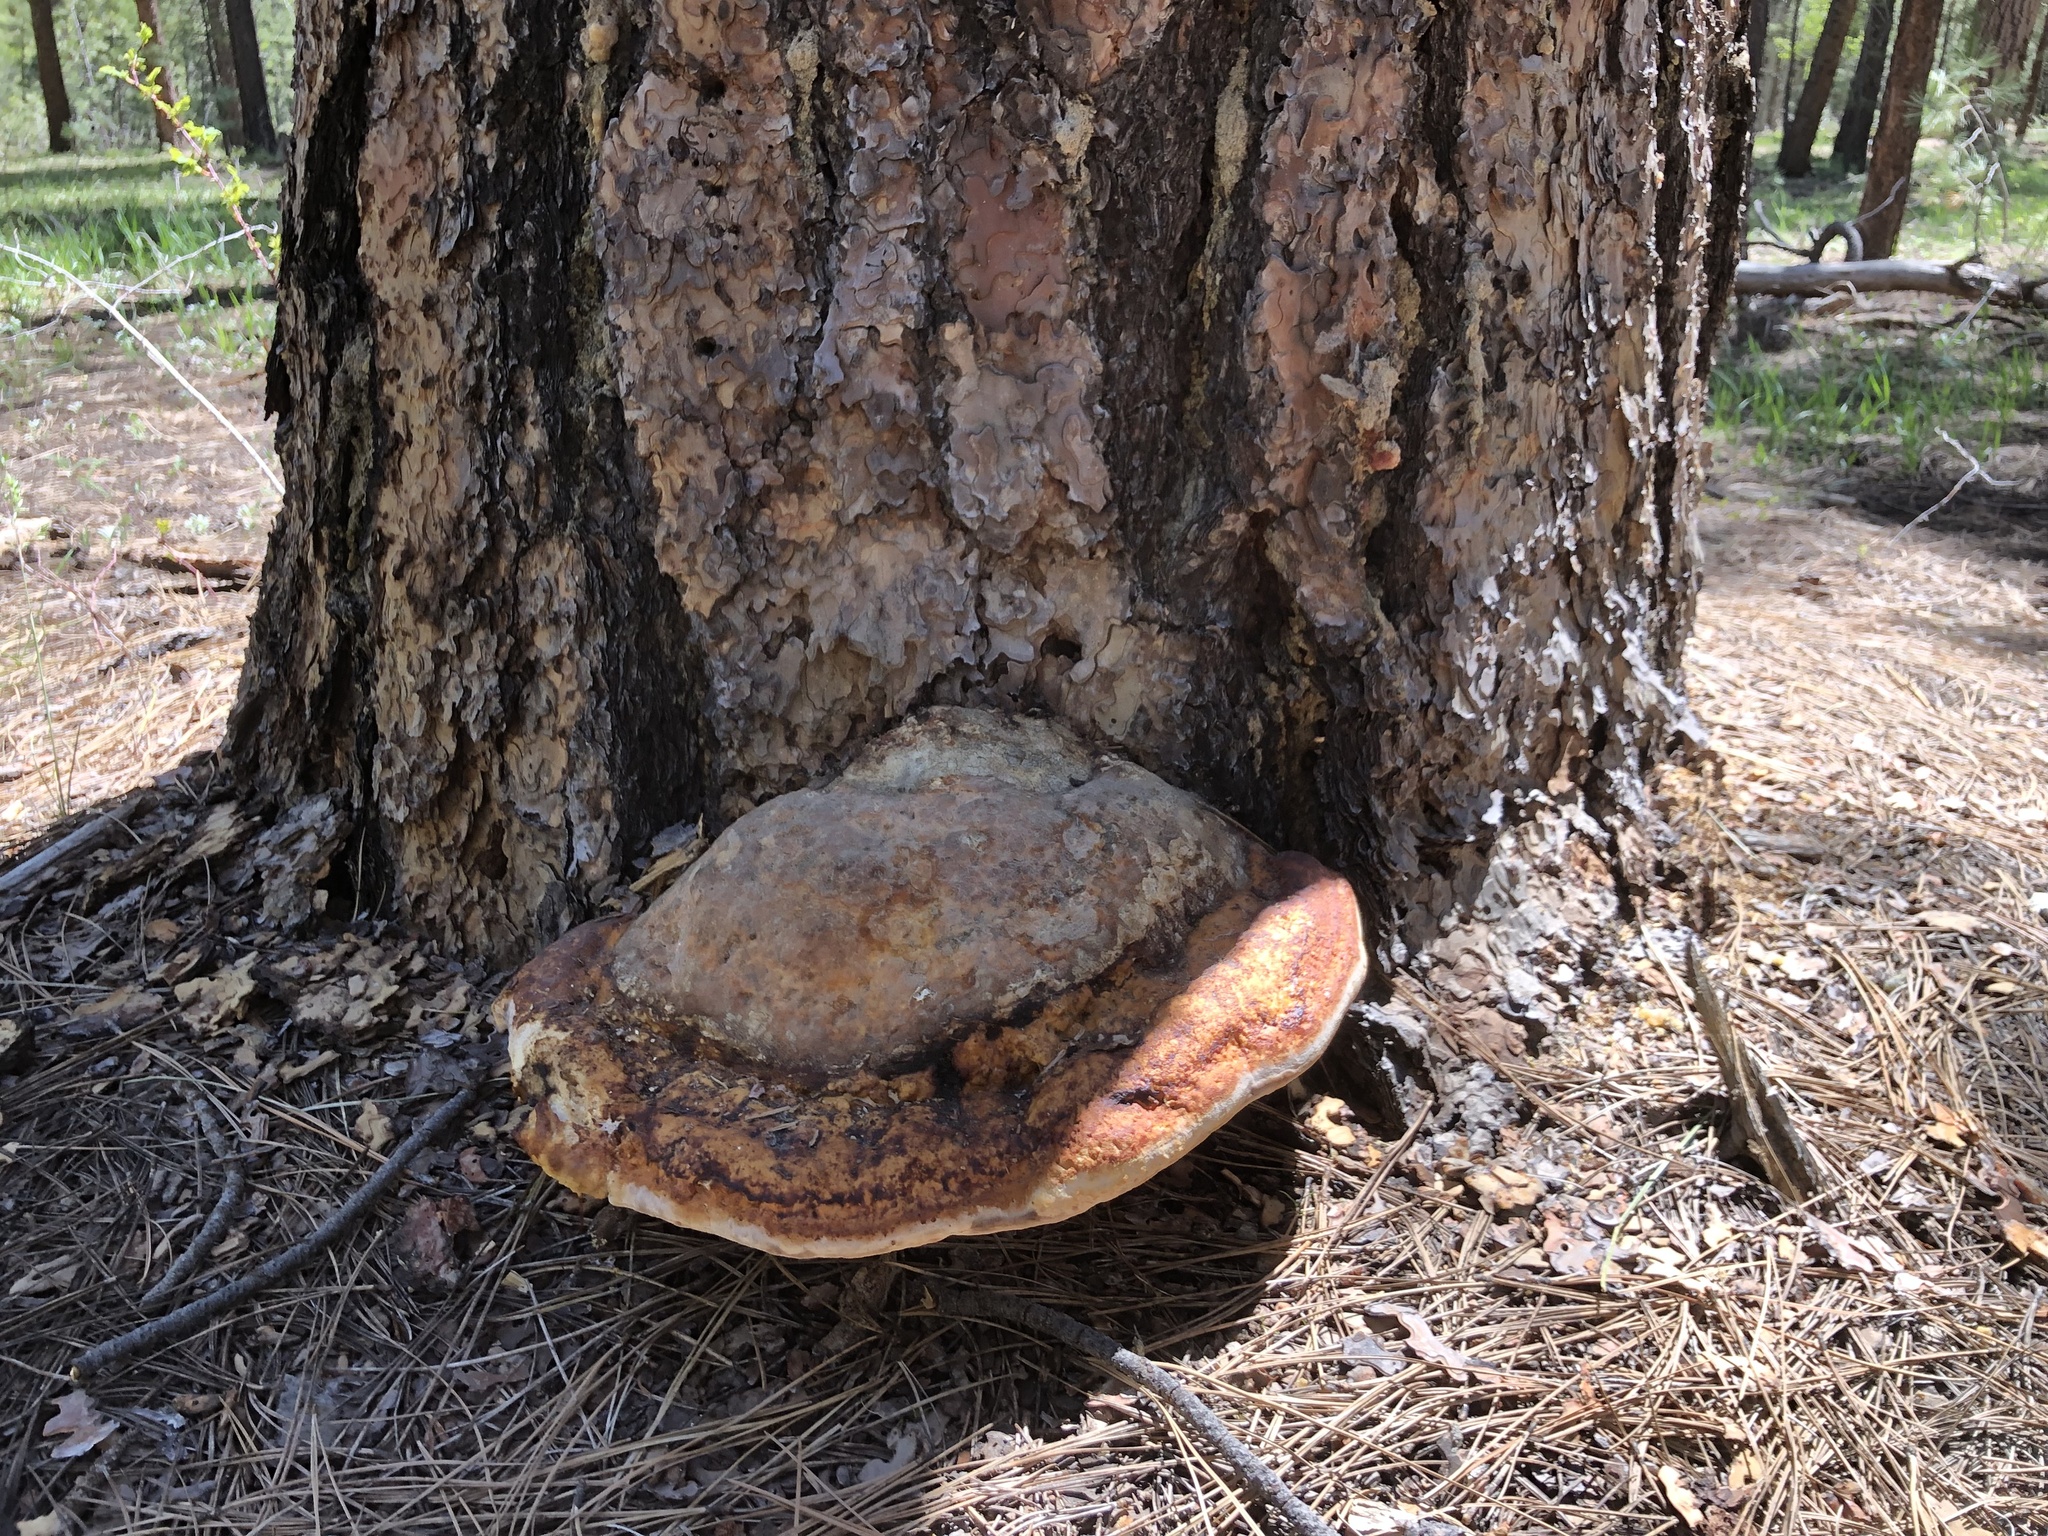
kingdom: Fungi
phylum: Basidiomycota
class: Agaricomycetes
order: Polyporales
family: Fomitopsidaceae
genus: Fomitopsis
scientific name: Fomitopsis schrenkii
